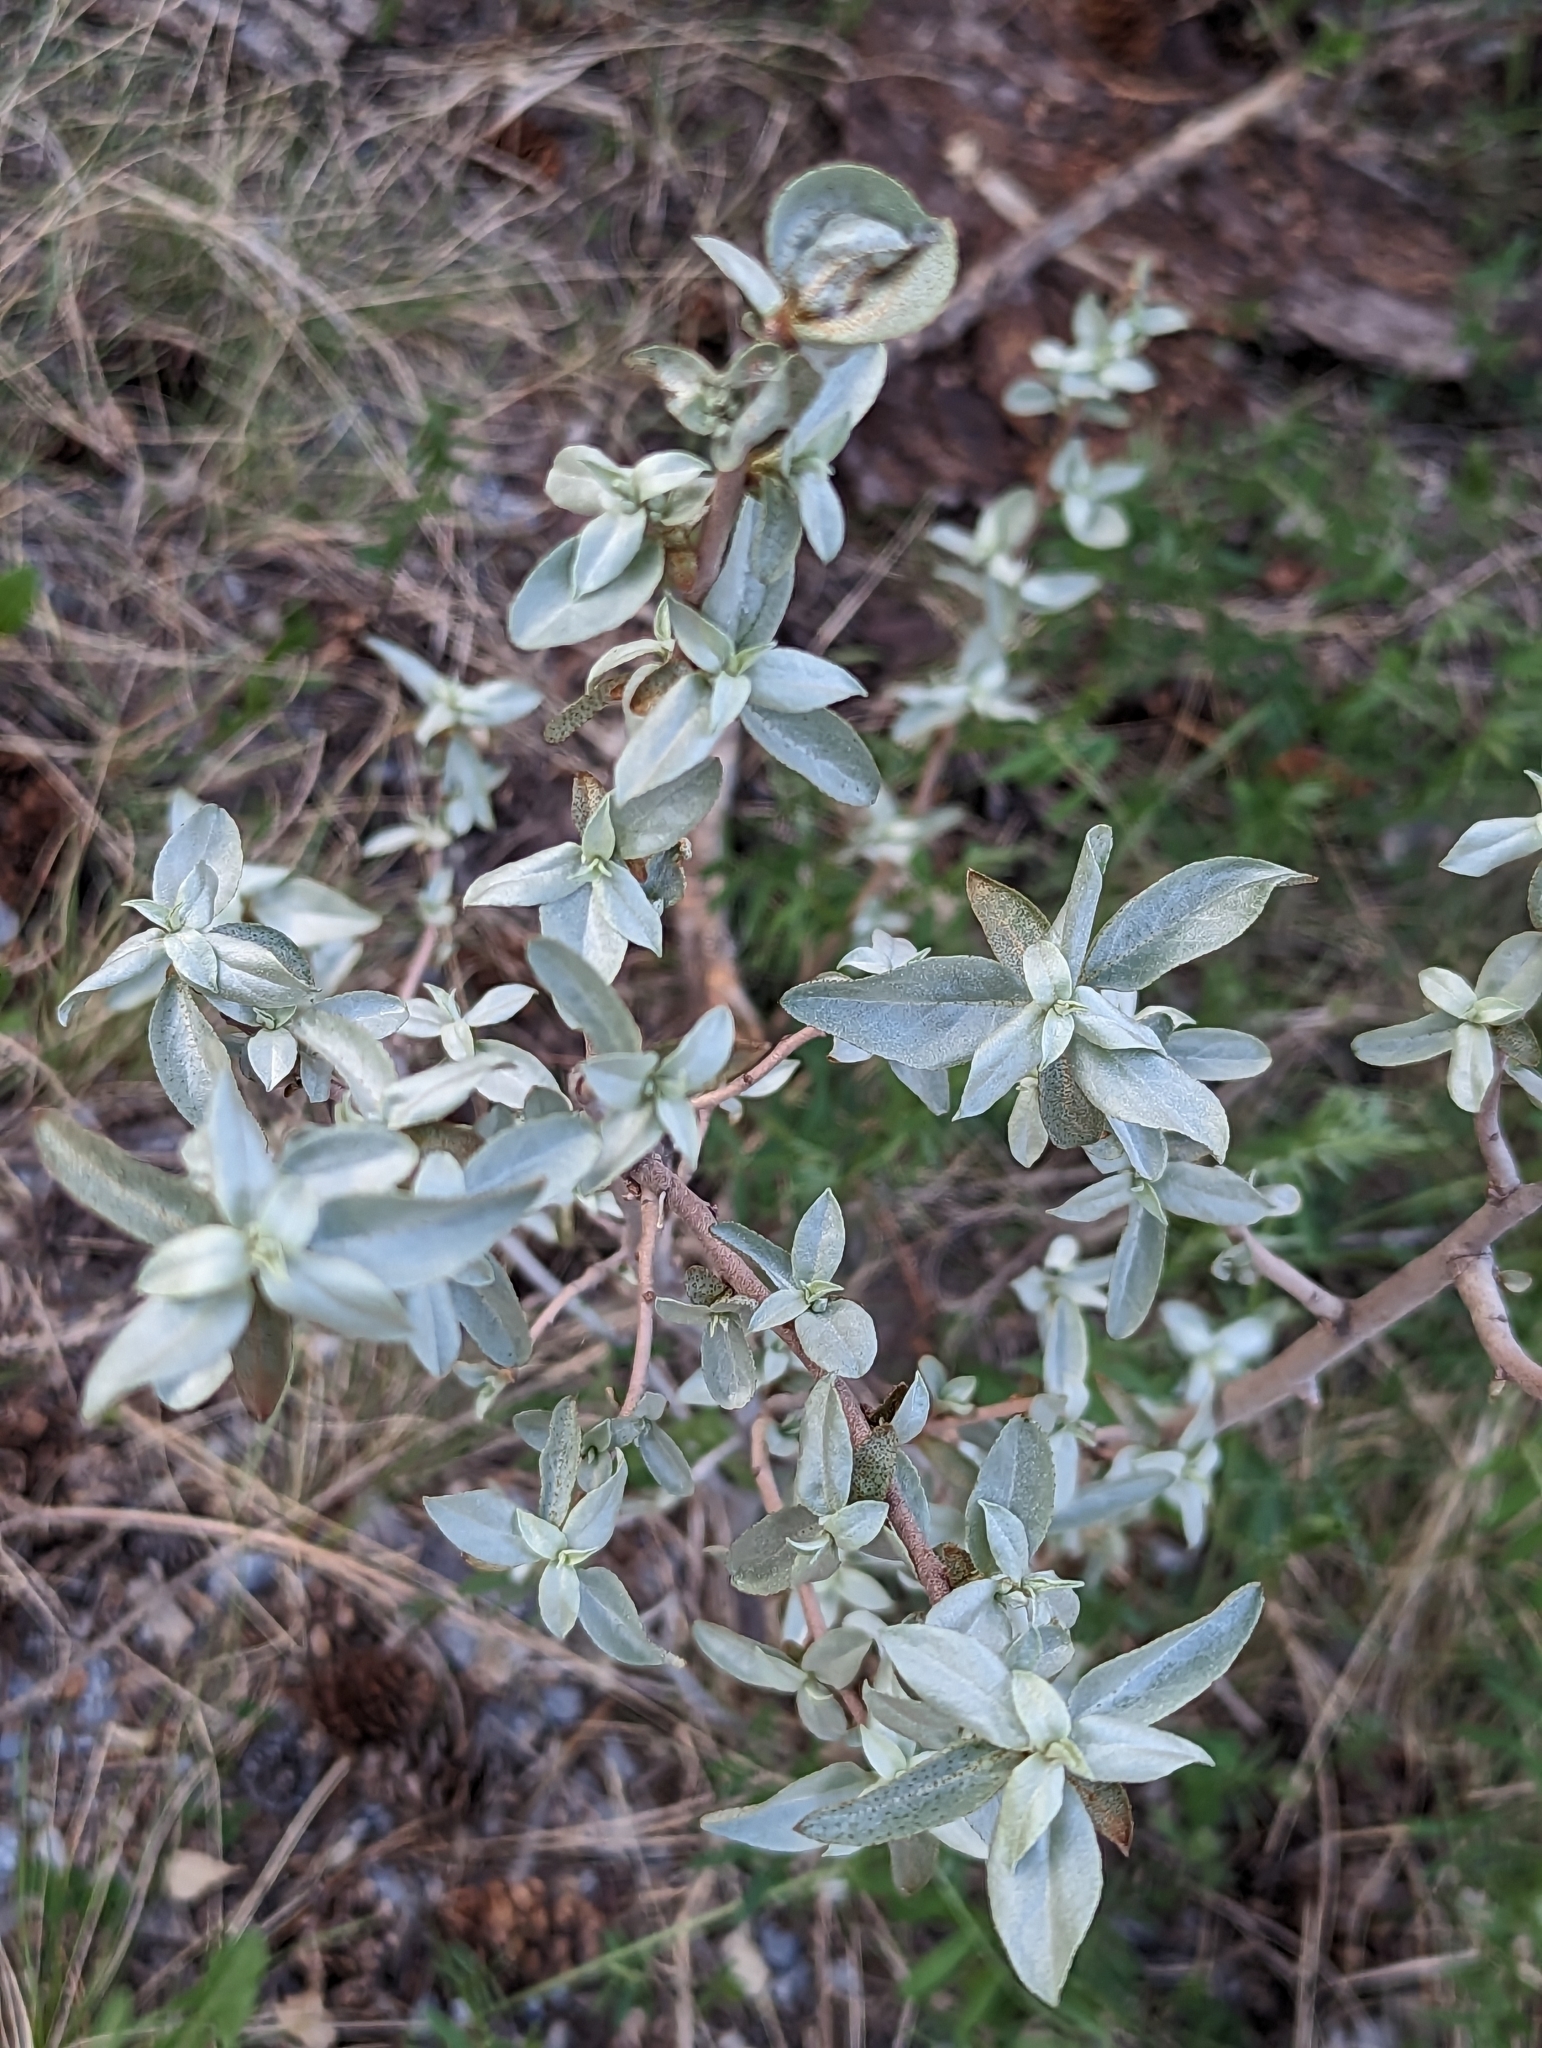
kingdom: Plantae
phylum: Tracheophyta
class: Magnoliopsida
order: Rosales
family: Elaeagnaceae
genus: Elaeagnus
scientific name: Elaeagnus commutata
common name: Silverberry
